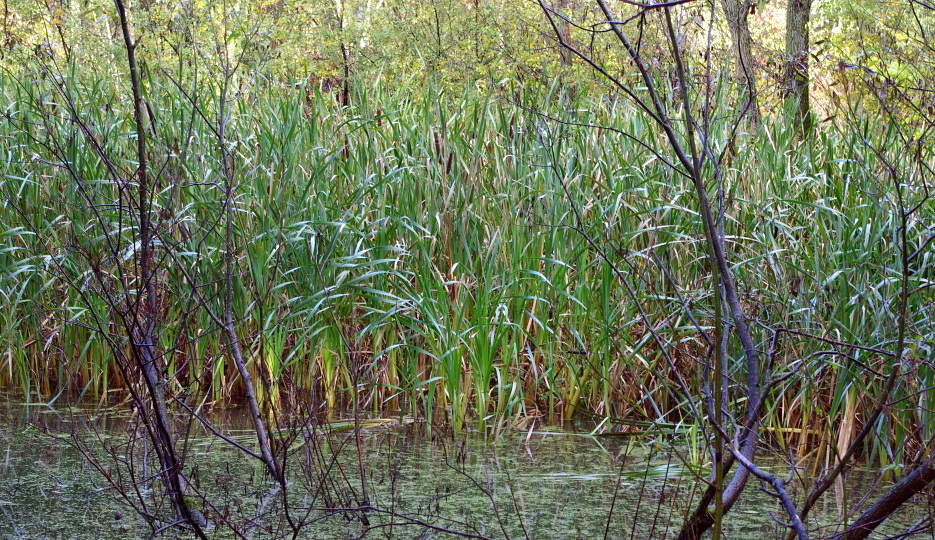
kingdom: Plantae
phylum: Tracheophyta
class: Liliopsida
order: Poales
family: Typhaceae
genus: Typha
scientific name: Typha latifolia
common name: Broadleaf cattail
